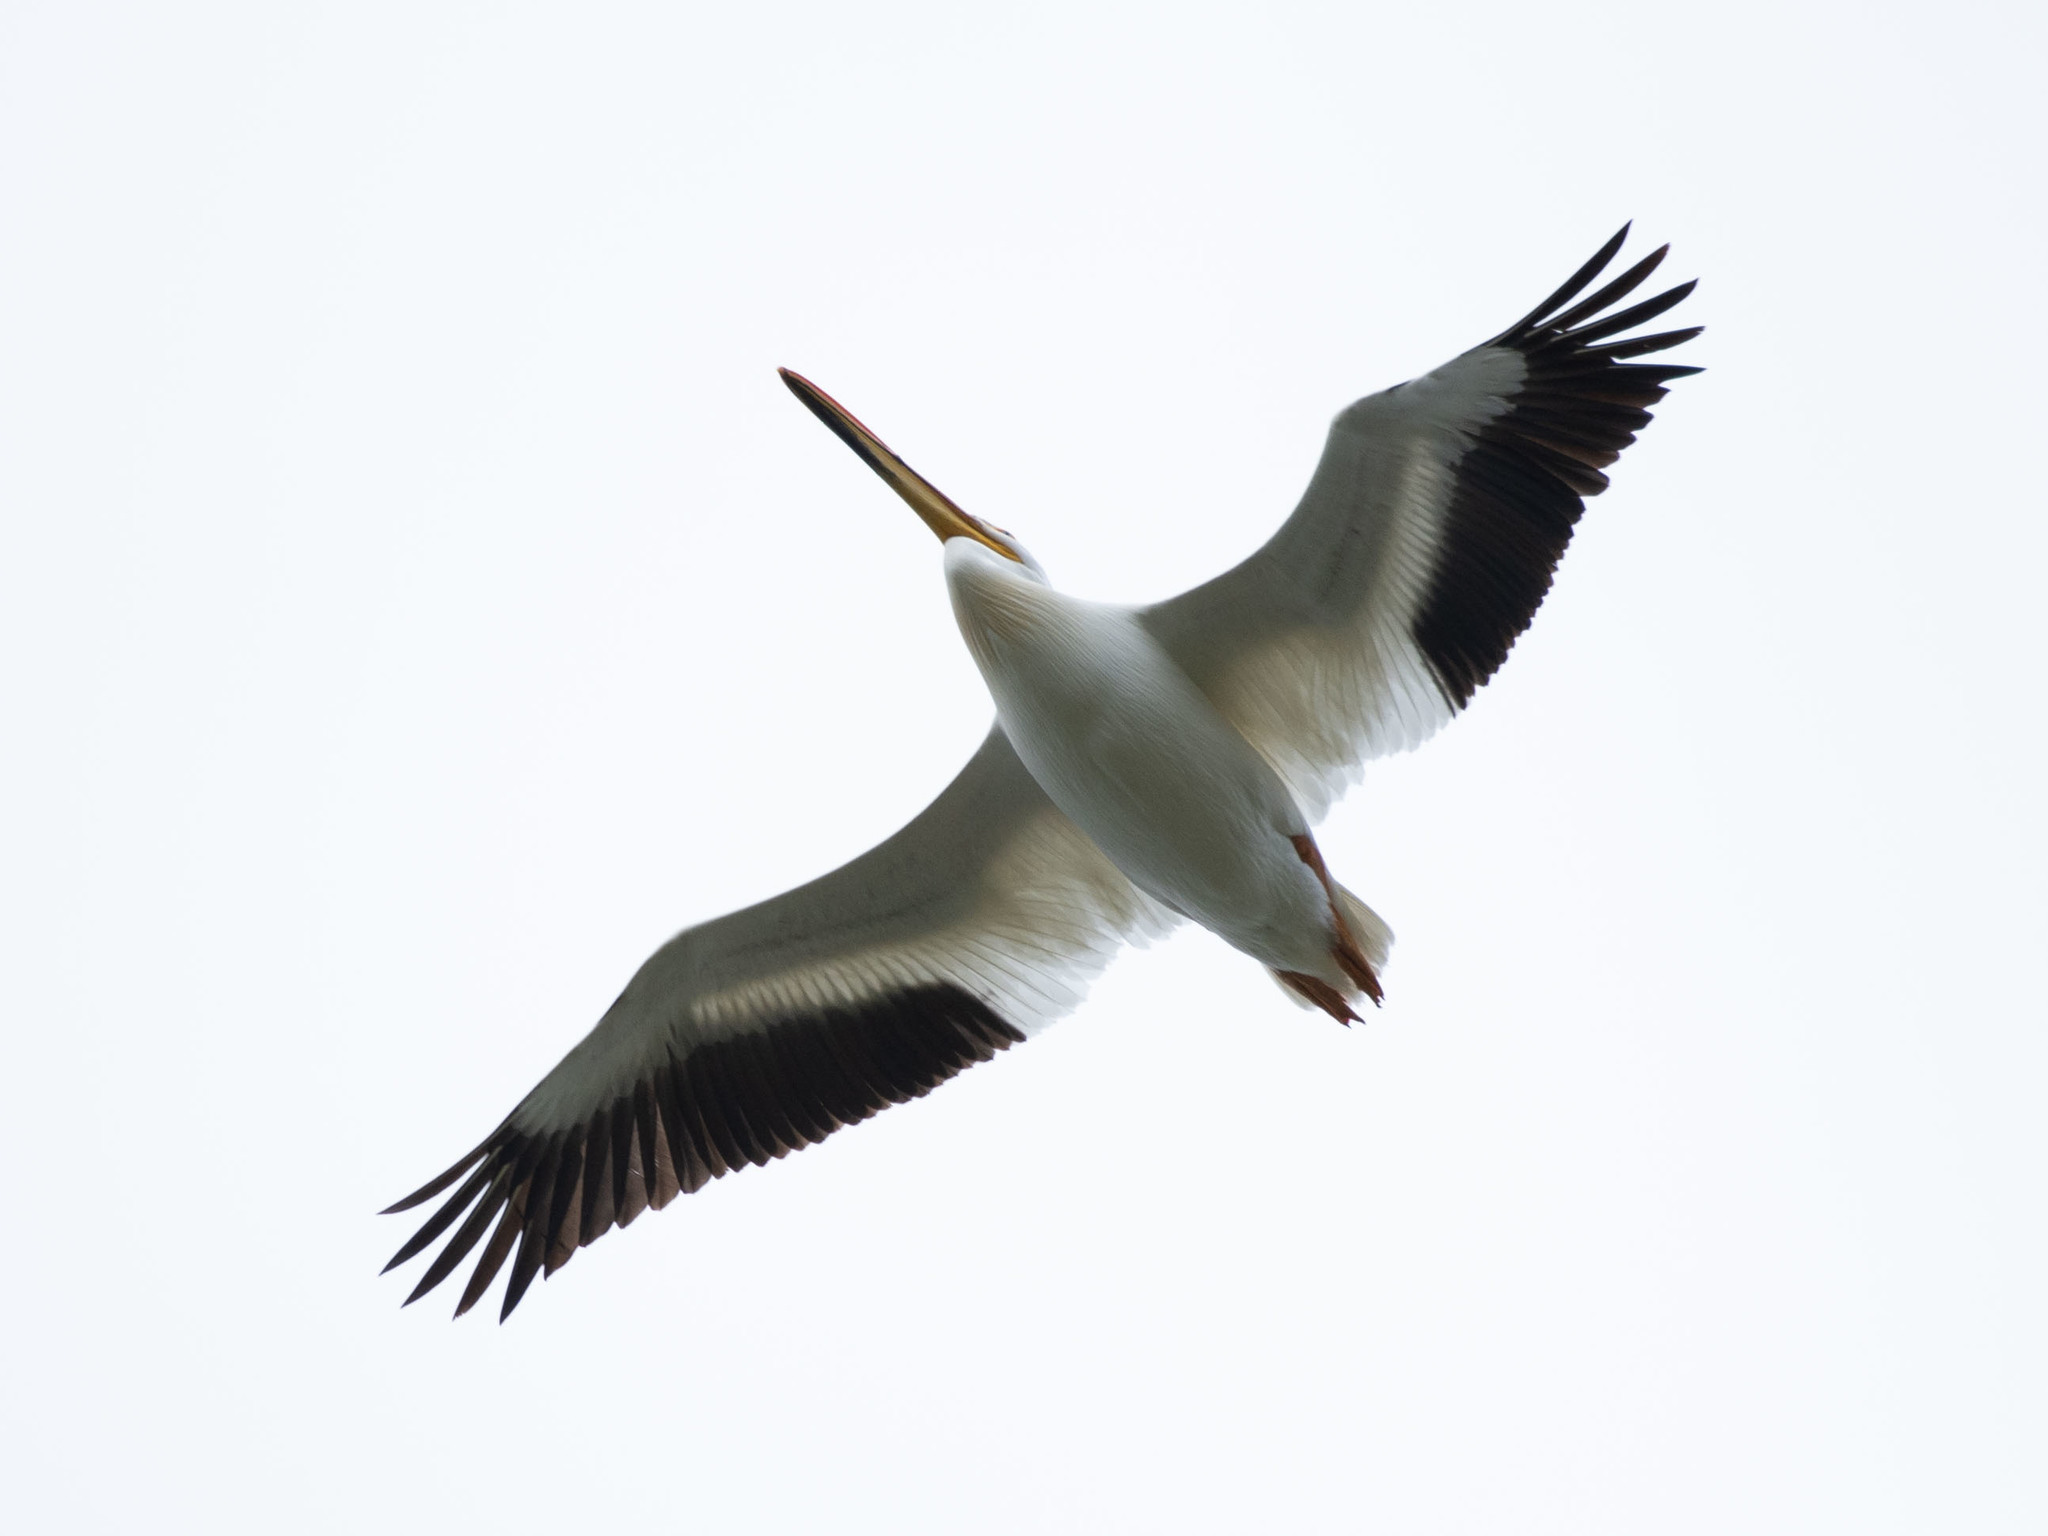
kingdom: Animalia
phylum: Chordata
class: Aves
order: Pelecaniformes
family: Pelecanidae
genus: Pelecanus
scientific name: Pelecanus erythrorhynchos
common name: American white pelican
